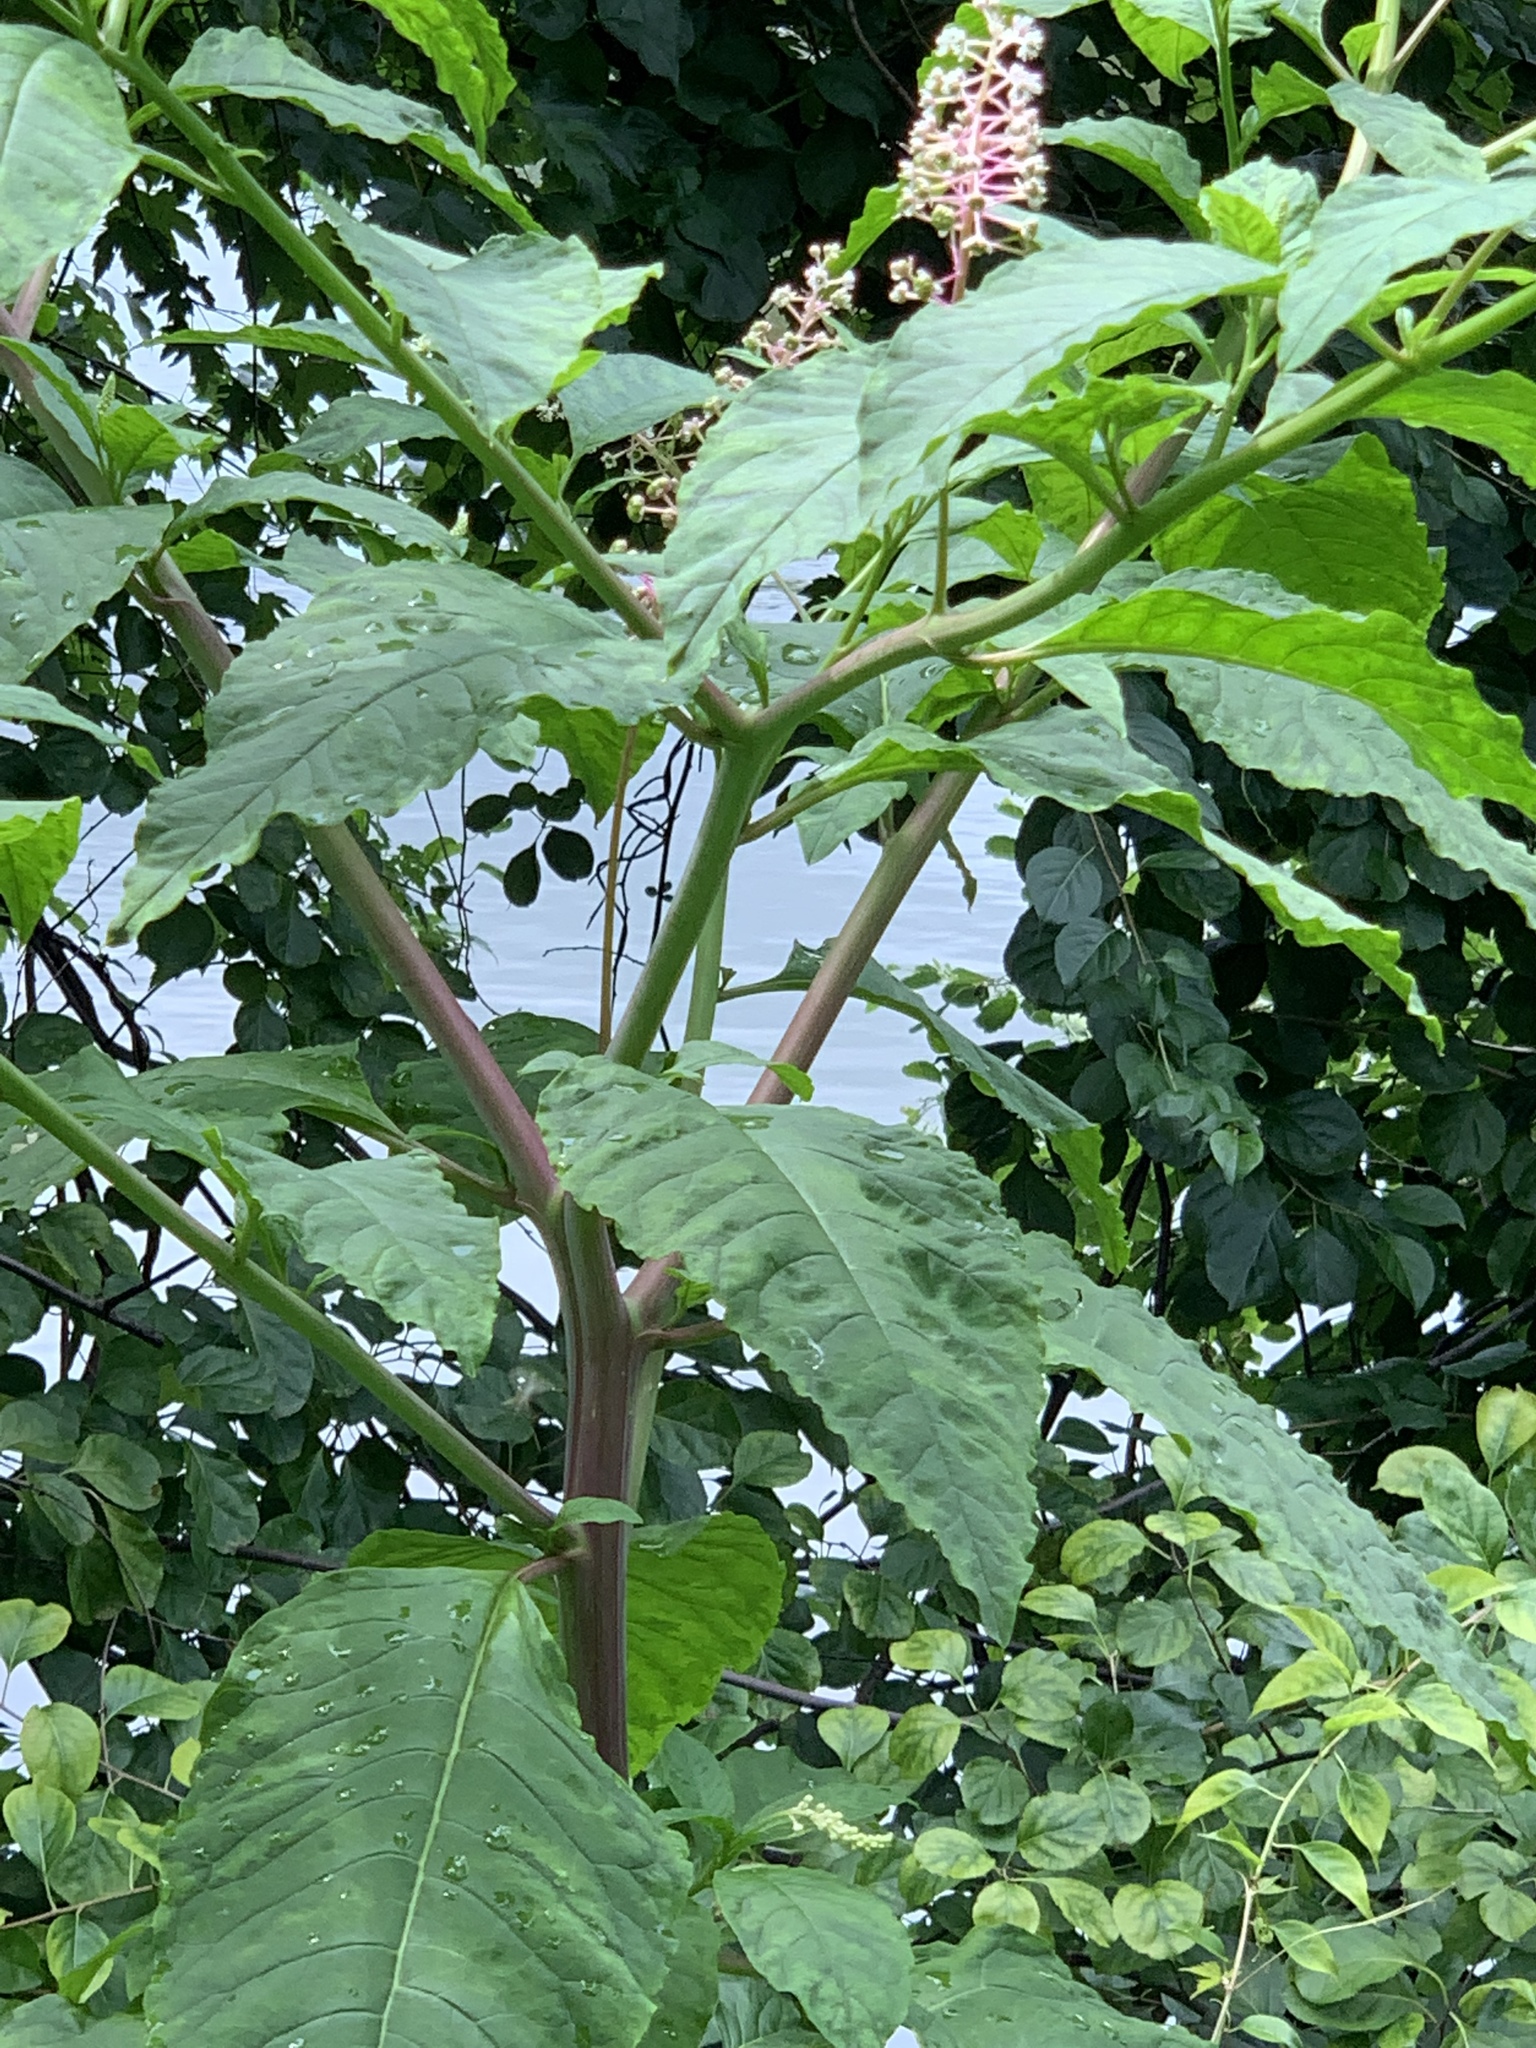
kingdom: Plantae
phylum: Tracheophyta
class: Magnoliopsida
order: Caryophyllales
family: Phytolaccaceae
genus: Phytolacca
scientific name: Phytolacca americana
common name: American pokeweed
